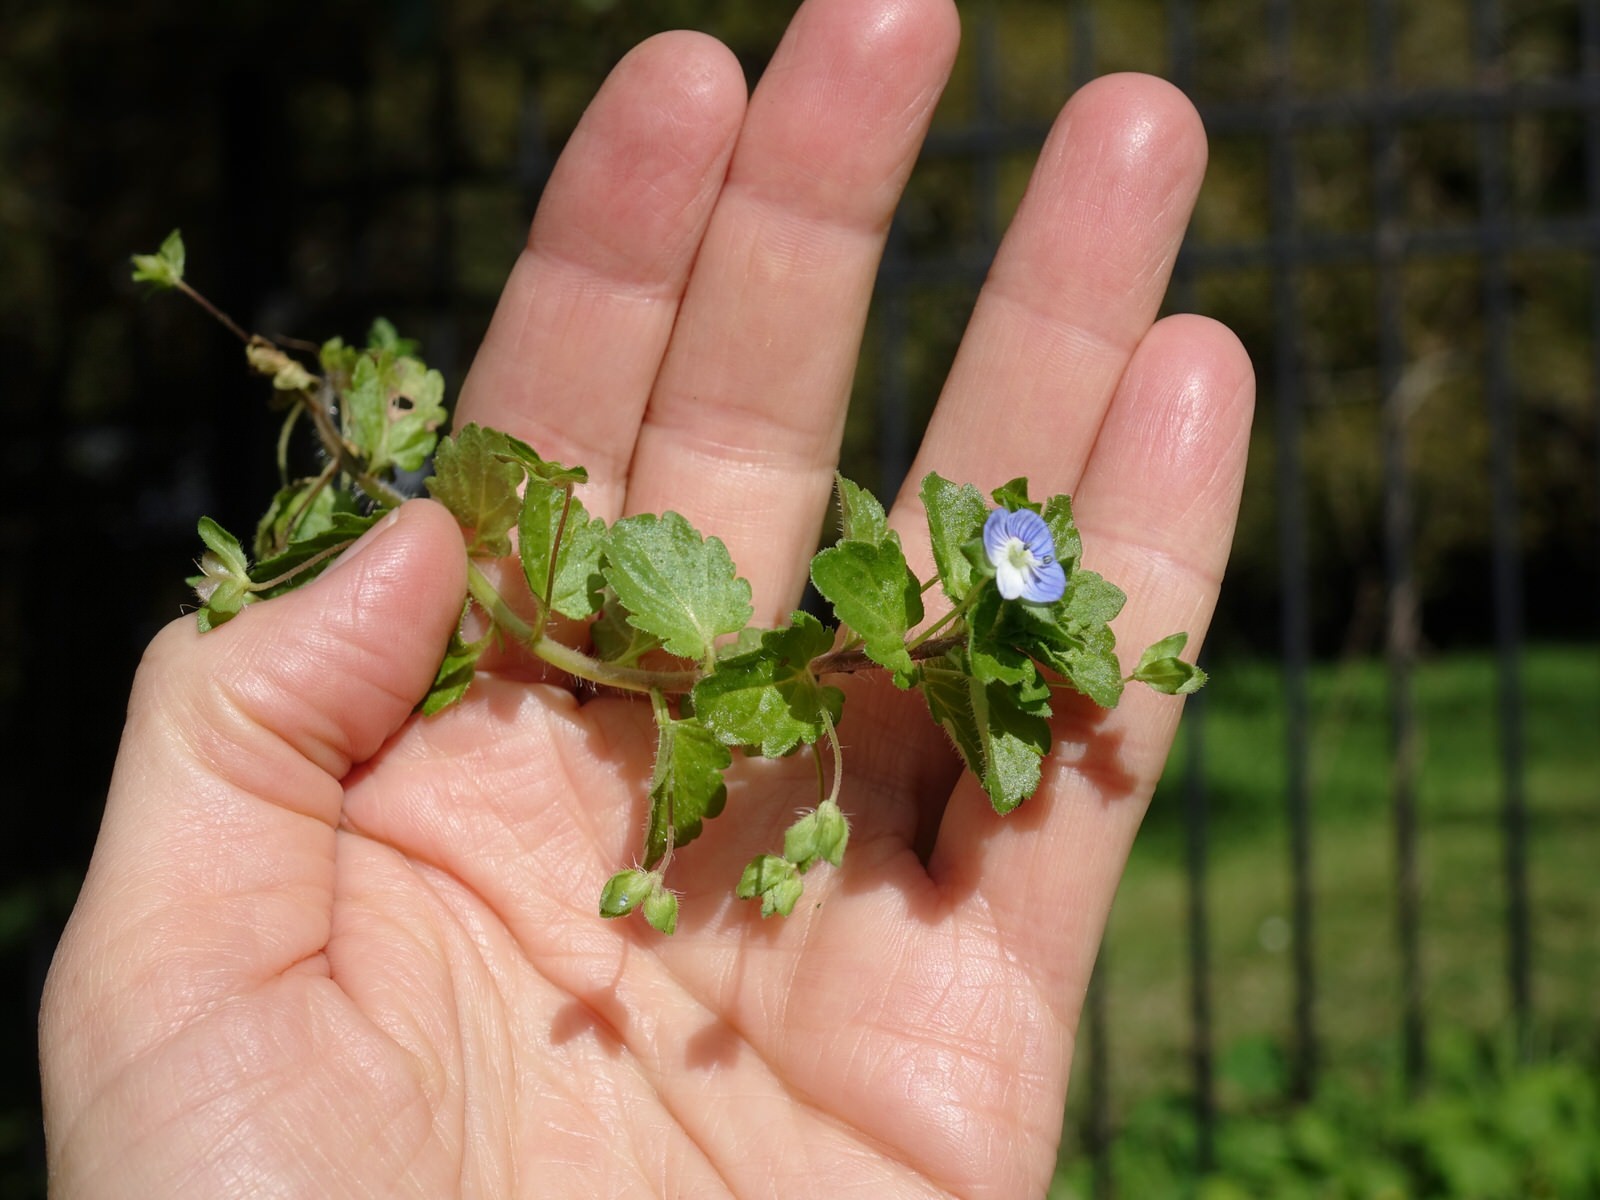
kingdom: Plantae
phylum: Tracheophyta
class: Magnoliopsida
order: Lamiales
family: Plantaginaceae
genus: Veronica
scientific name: Veronica persica
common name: Common field-speedwell
